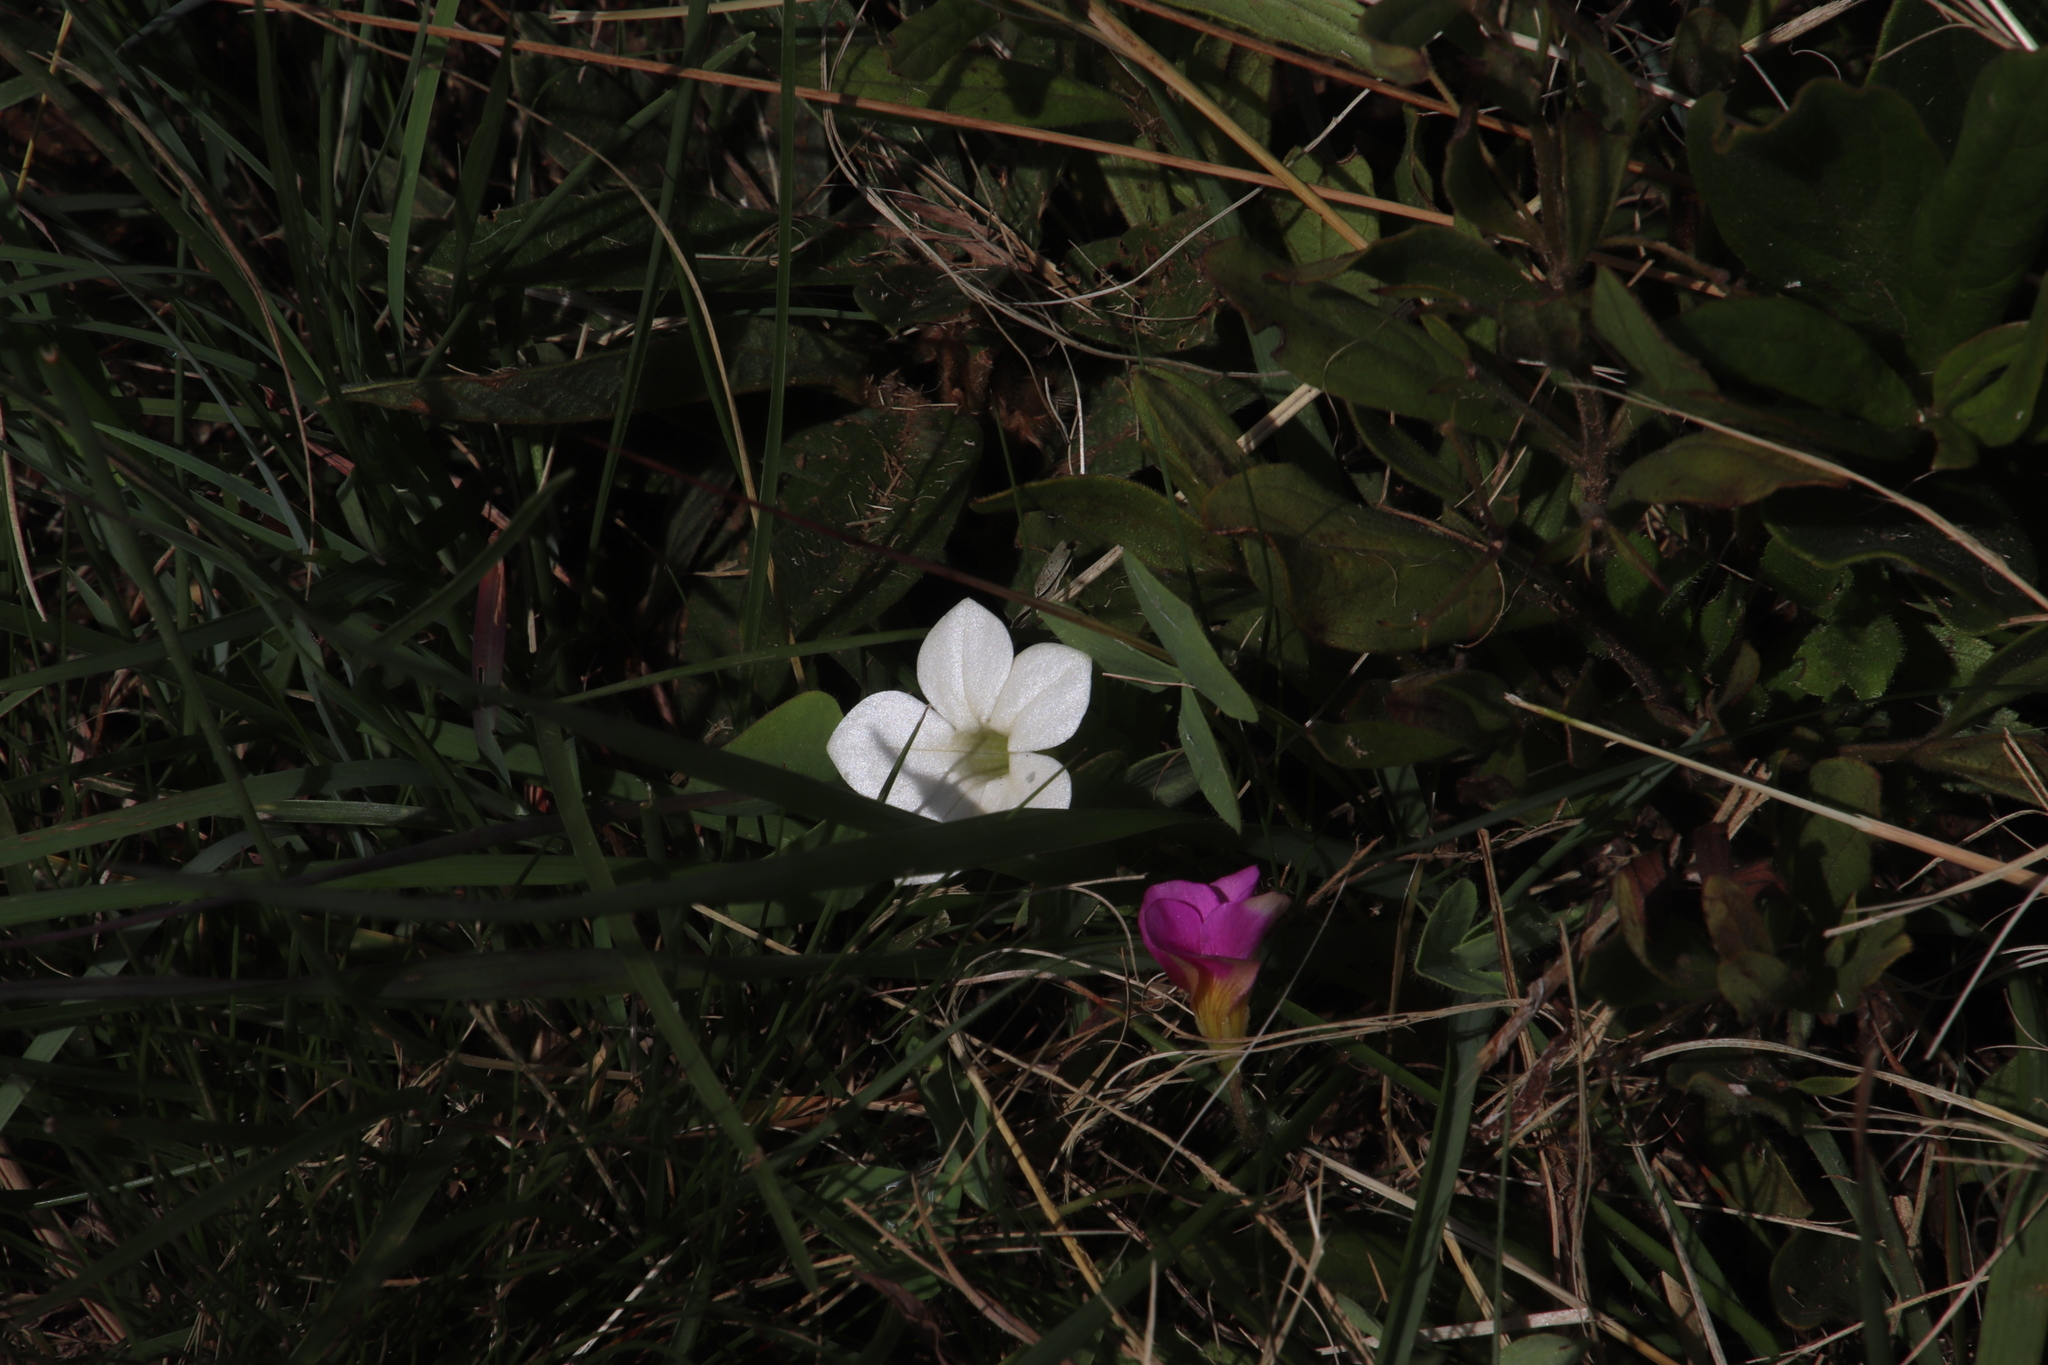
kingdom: Plantae
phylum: Tracheophyta
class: Magnoliopsida
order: Oxalidales
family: Oxalidaceae
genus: Oxalis
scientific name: Oxalis obliquifolia
